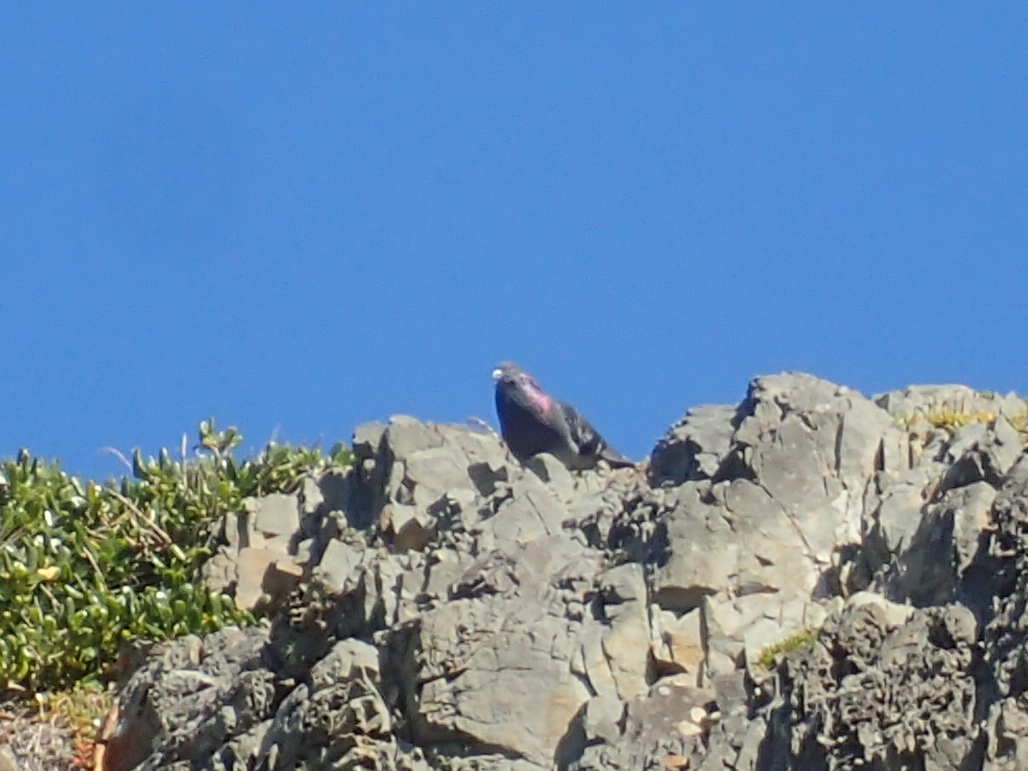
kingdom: Animalia
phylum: Chordata
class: Aves
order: Columbiformes
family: Columbidae
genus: Columba
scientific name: Columba livia
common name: Rock pigeon
